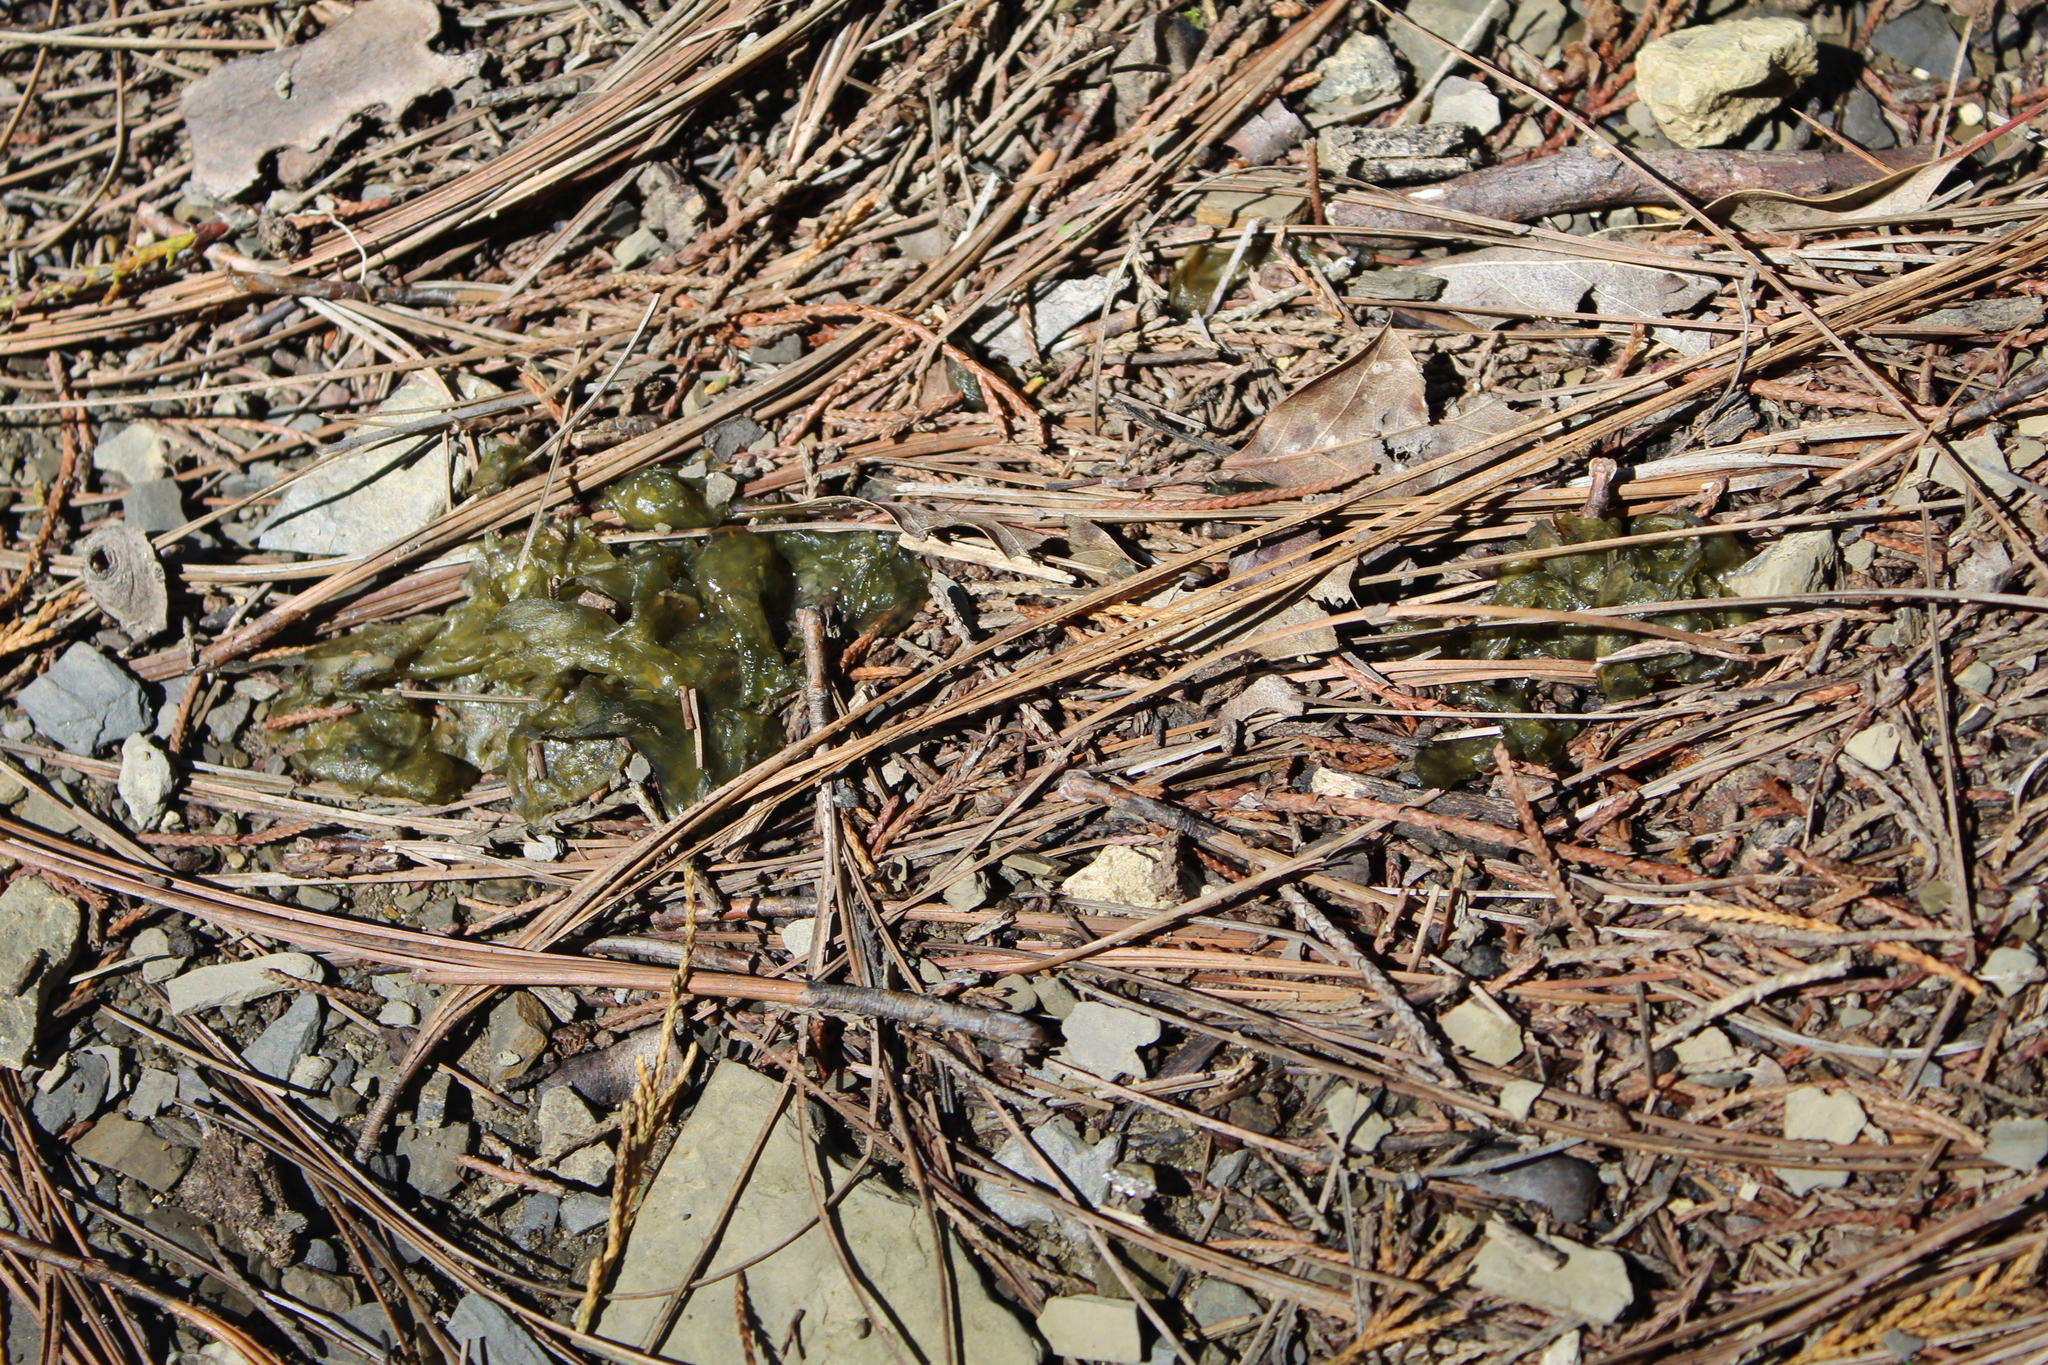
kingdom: Bacteria
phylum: Cyanobacteria
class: Cyanobacteriia
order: Cyanobacteriales
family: Nostocaceae
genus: Nostoc
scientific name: Nostoc commune
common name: Star jelly
